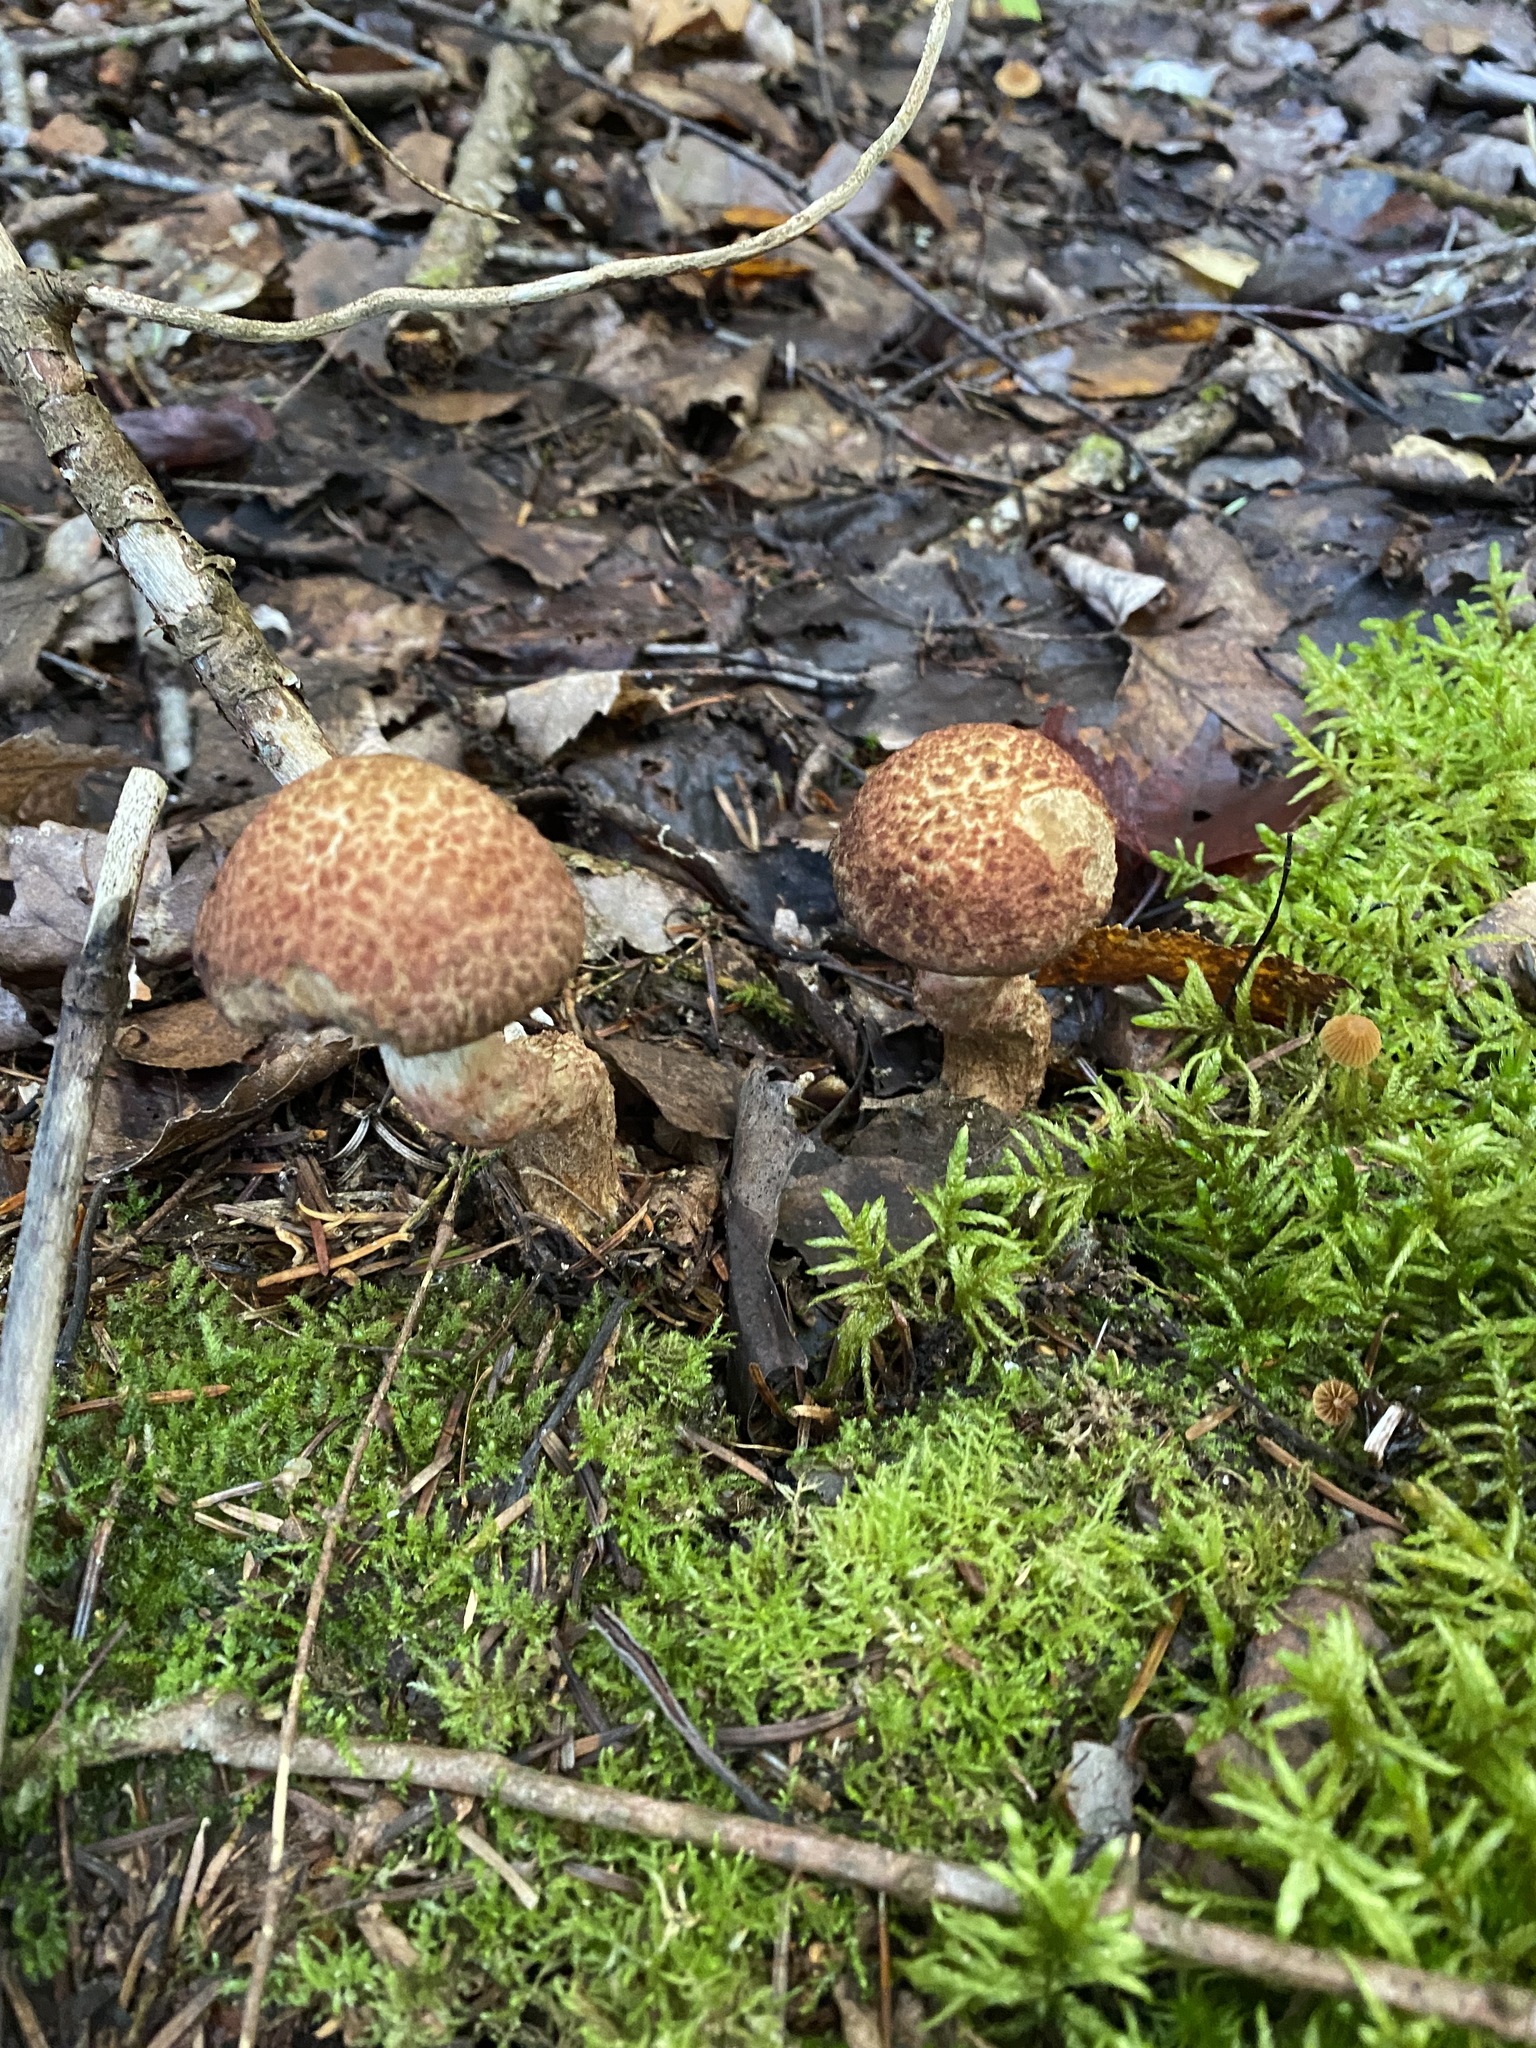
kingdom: Fungi
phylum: Basidiomycota
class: Agaricomycetes
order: Boletales
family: Suillaceae
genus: Suillus
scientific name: Suillus spraguei
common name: Painted suillus
